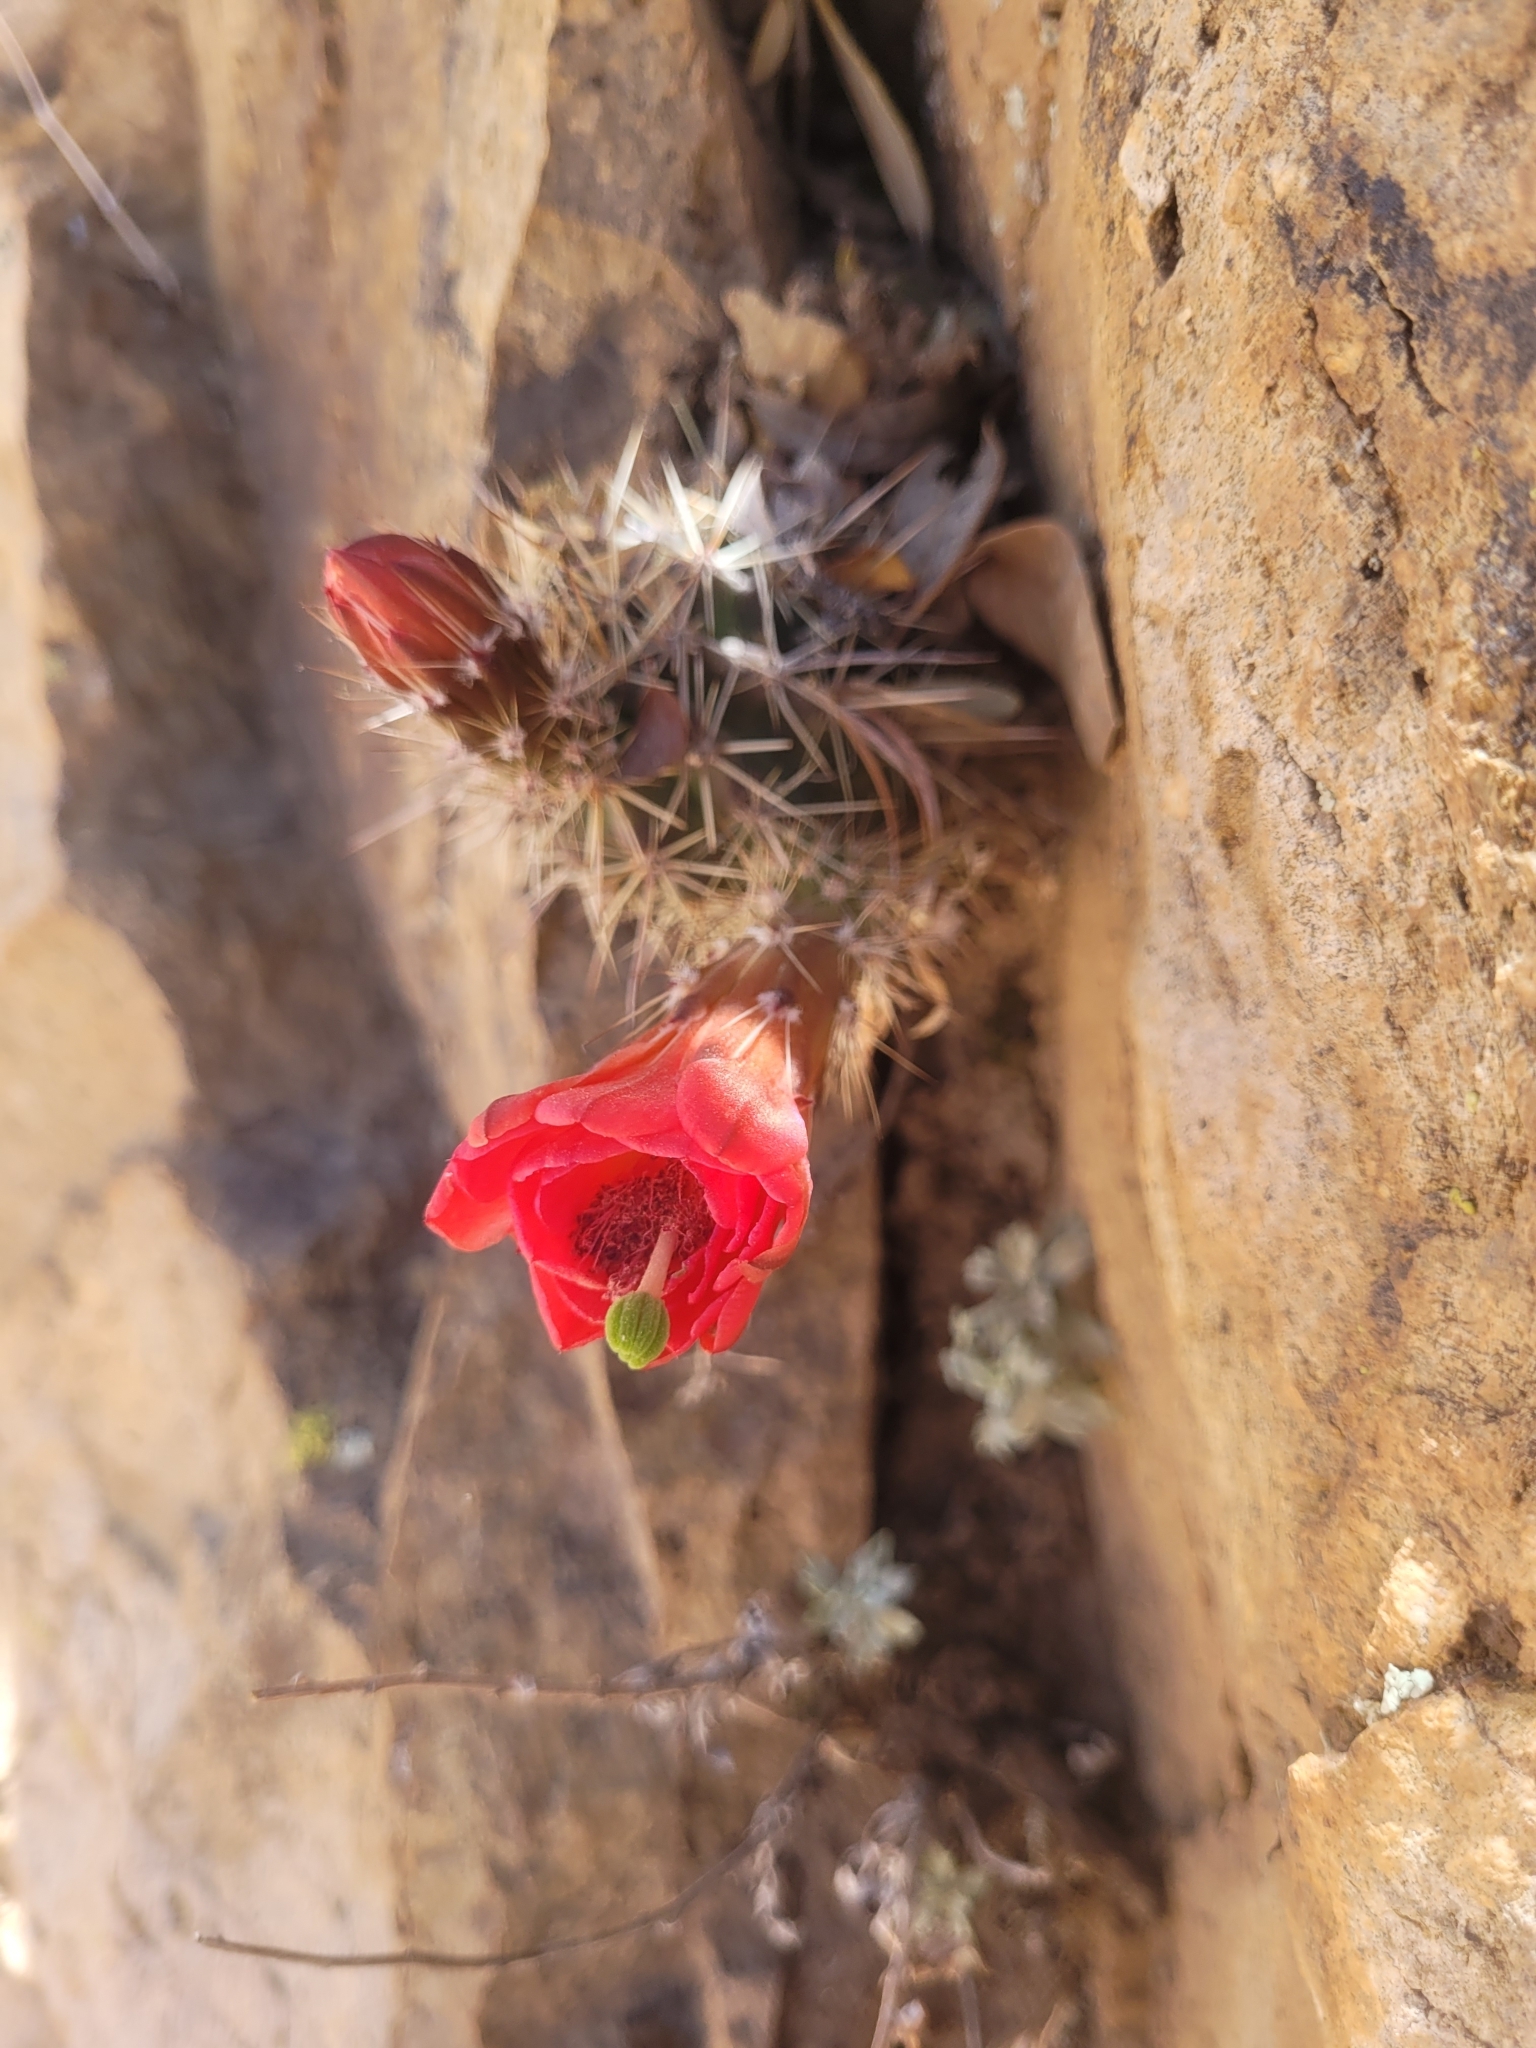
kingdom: Plantae
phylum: Tracheophyta
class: Magnoliopsida
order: Caryophyllales
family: Cactaceae
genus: Echinocereus
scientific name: Echinocereus coccineus
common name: Scarlet hedgehog cactus
